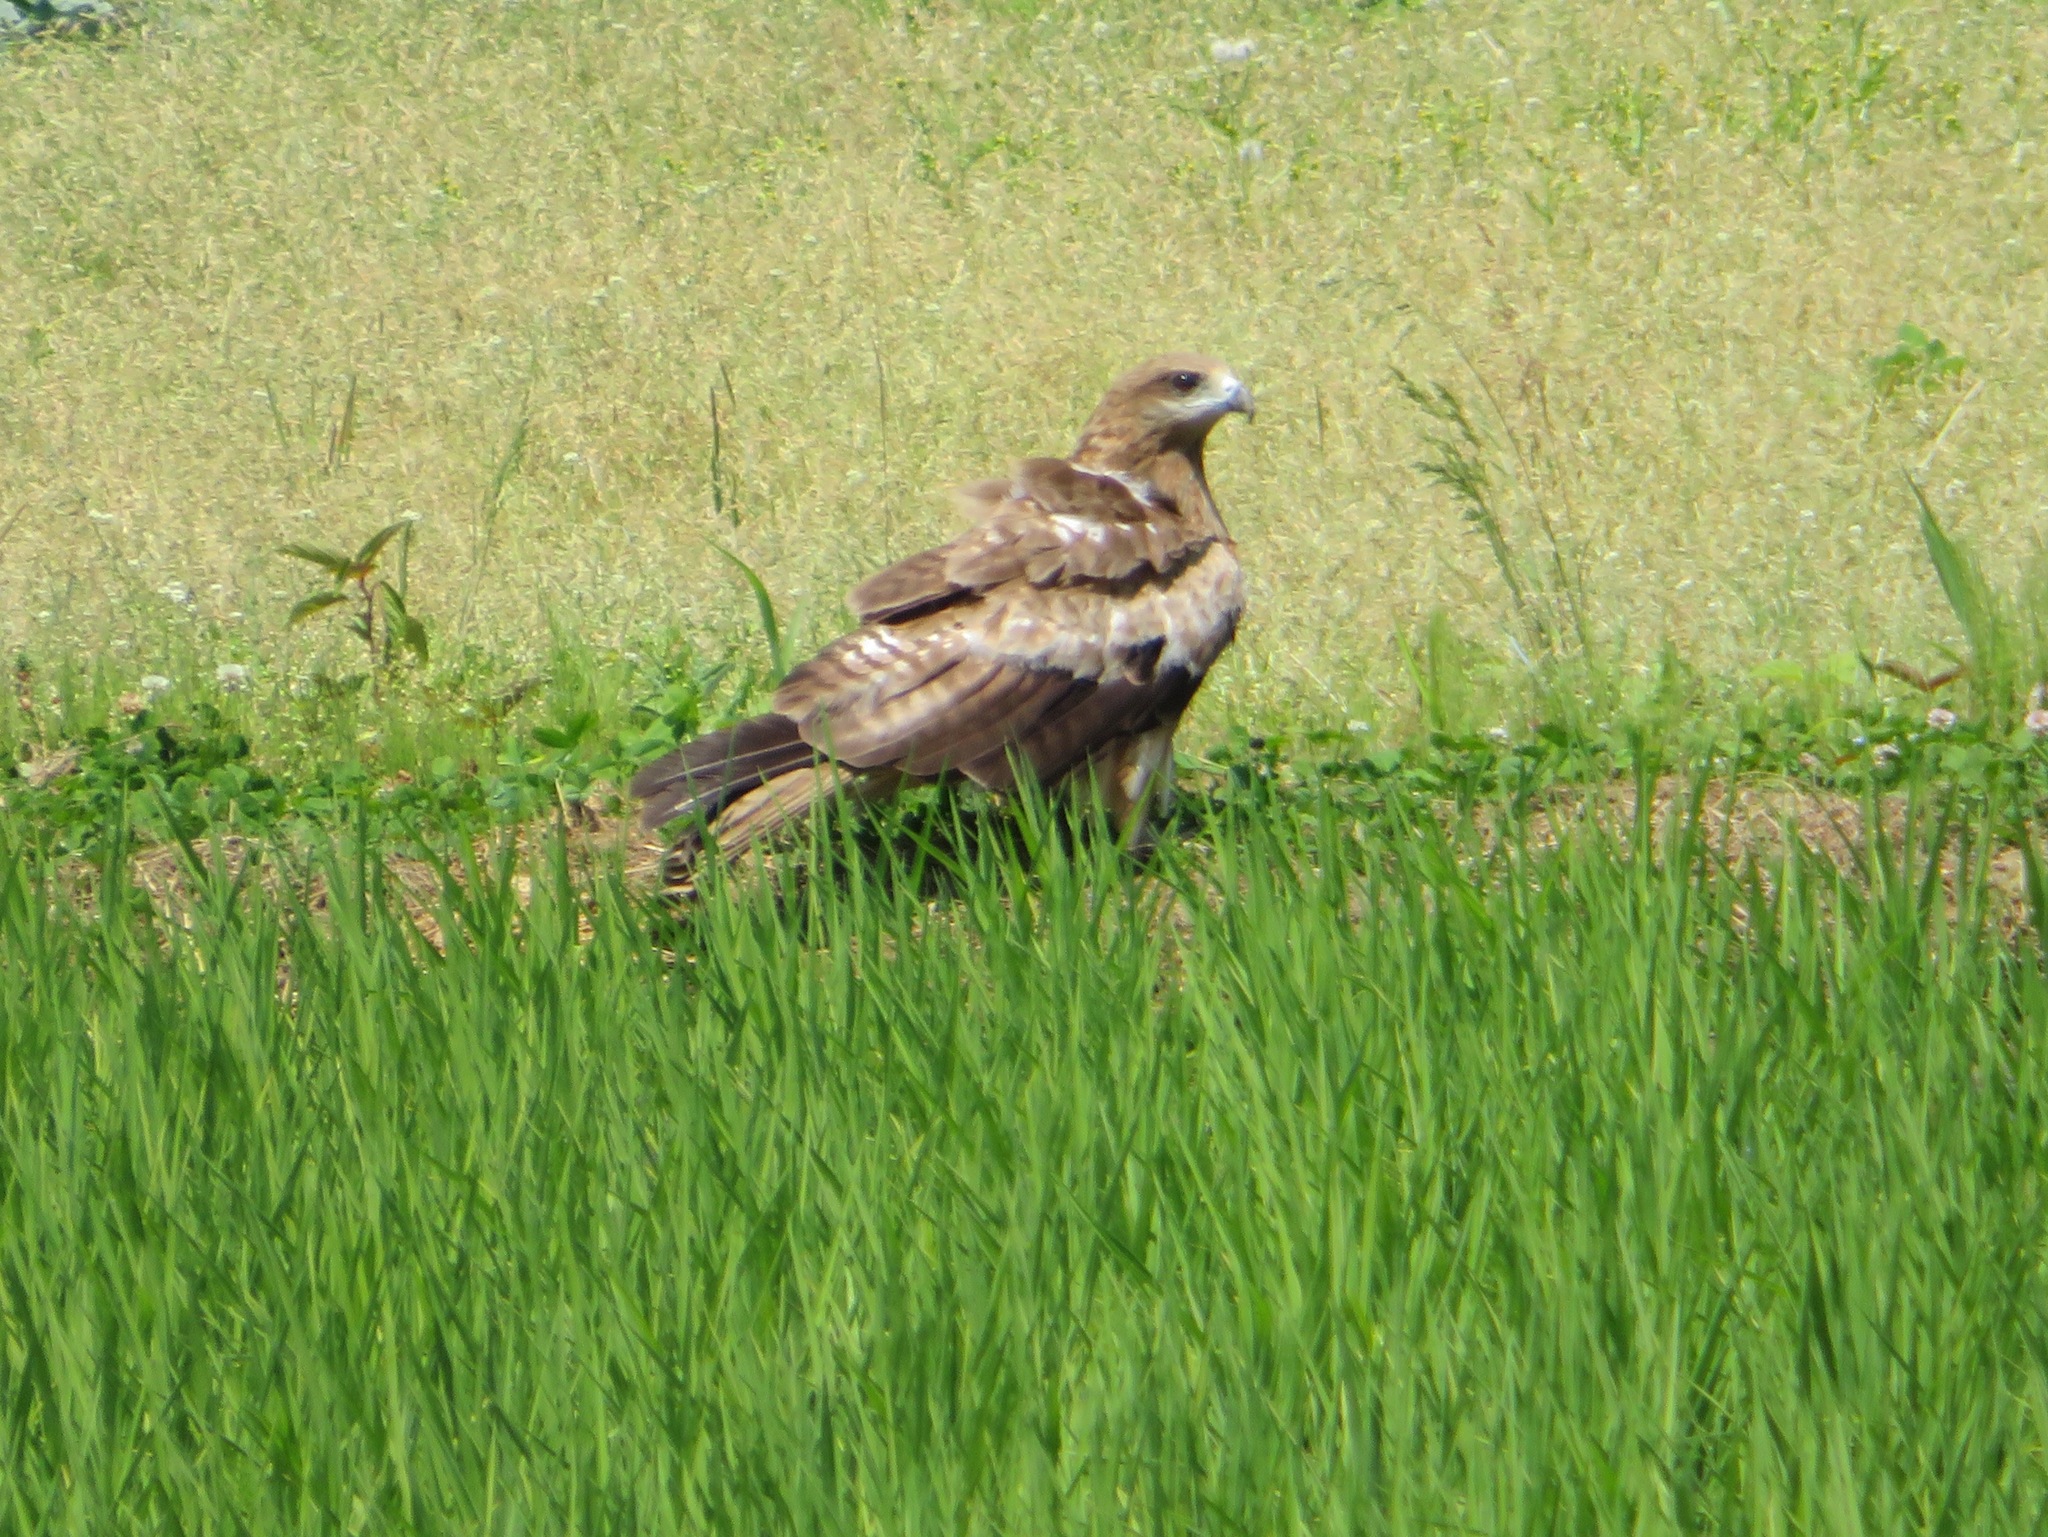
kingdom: Animalia
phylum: Chordata
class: Aves
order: Accipitriformes
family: Accipitridae
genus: Milvus
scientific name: Milvus migrans
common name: Black kite
